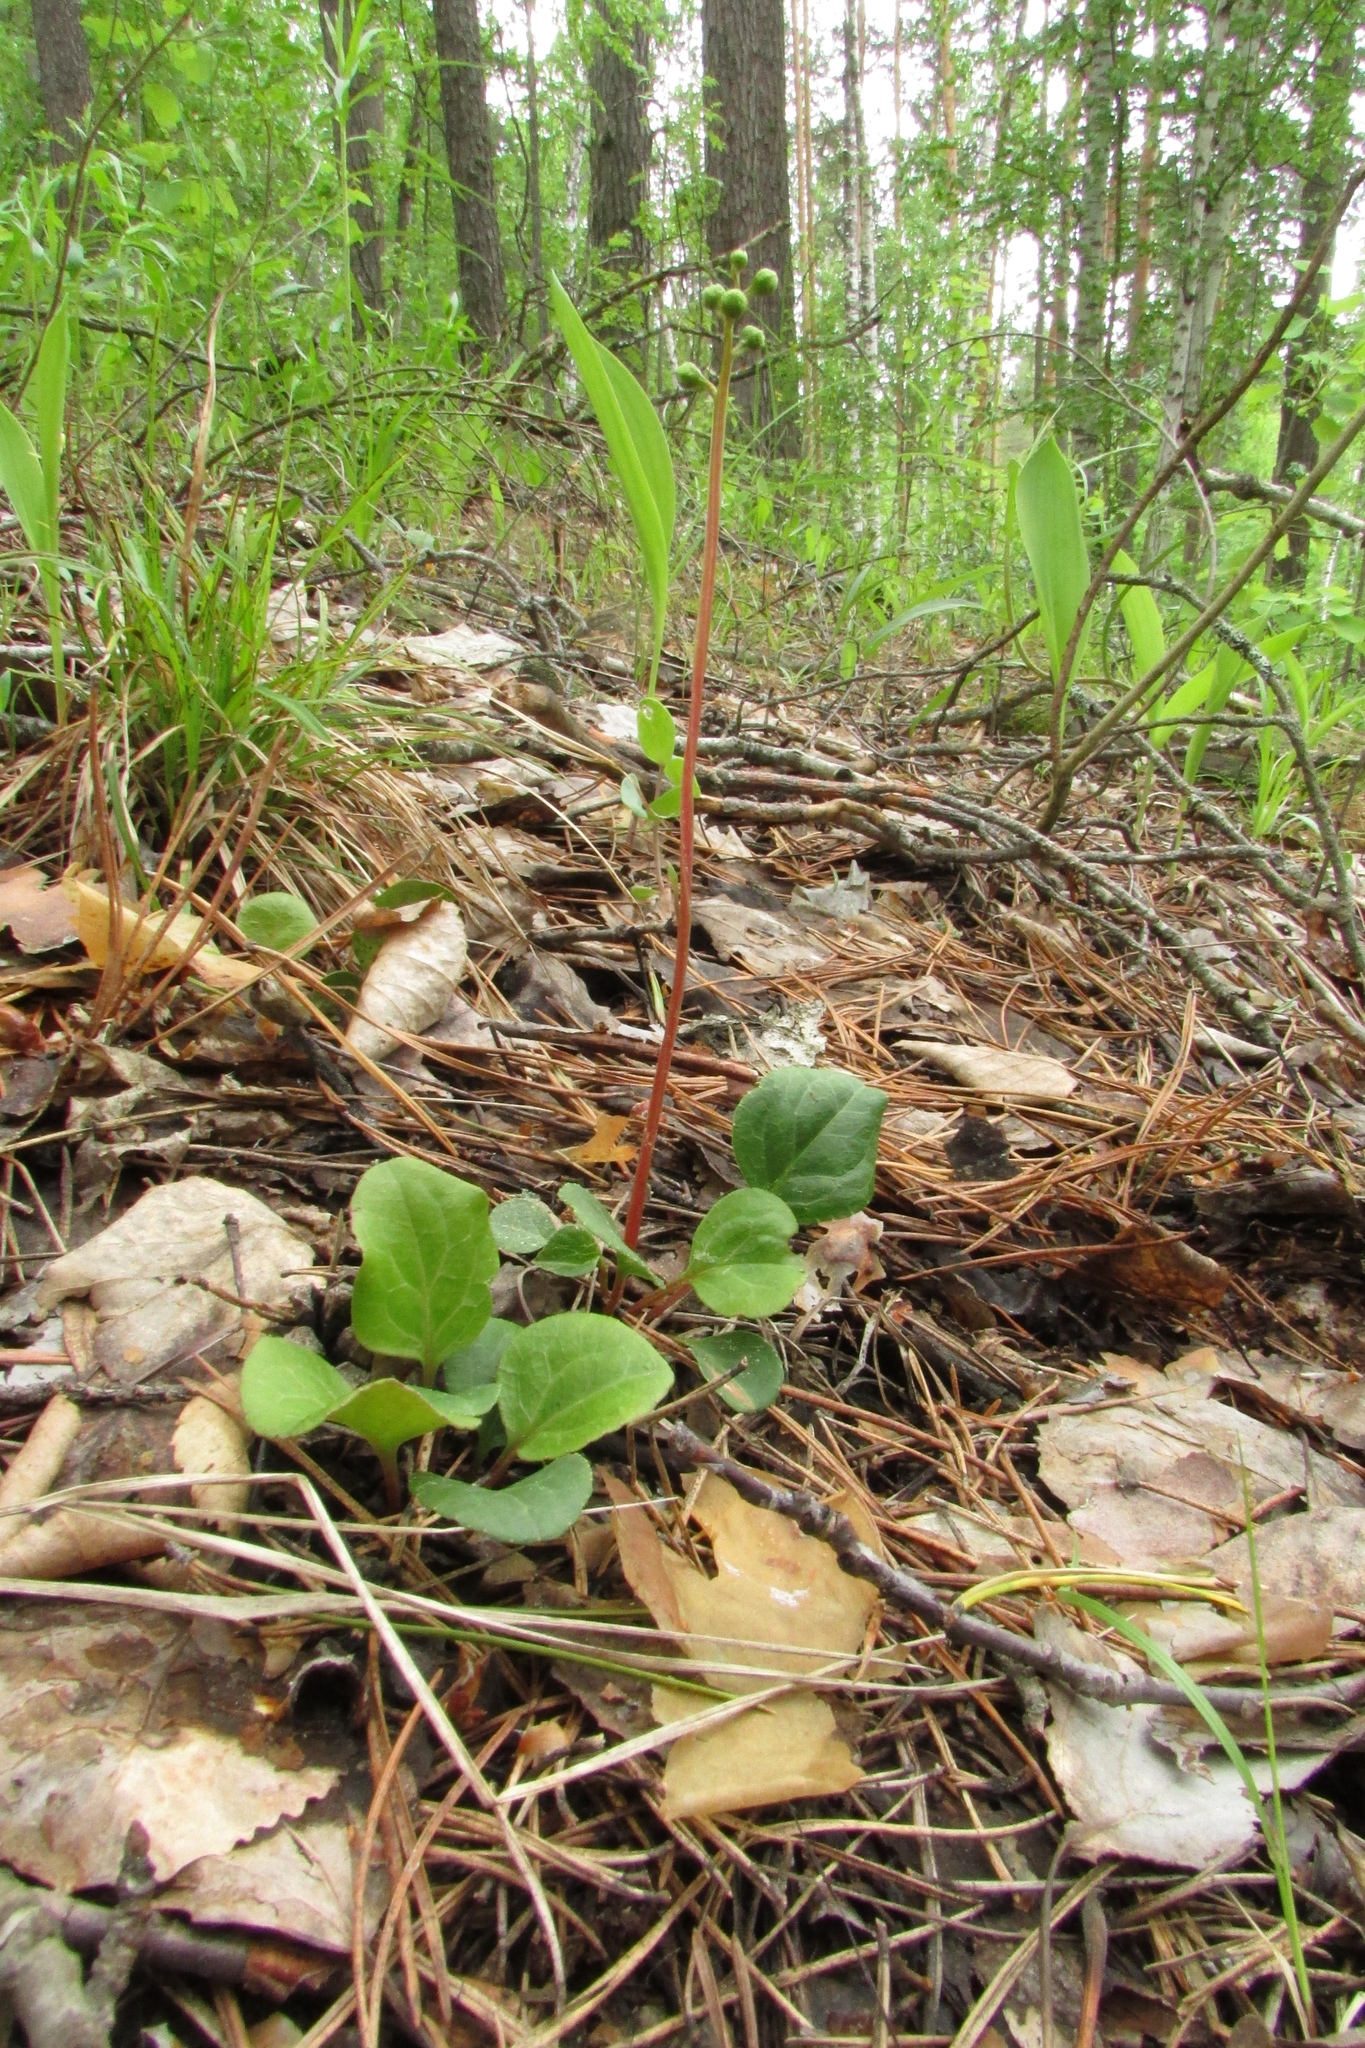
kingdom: Plantae
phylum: Tracheophyta
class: Magnoliopsida
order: Ericales
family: Ericaceae
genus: Pyrola
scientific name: Pyrola chlorantha
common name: Green wintergreen
